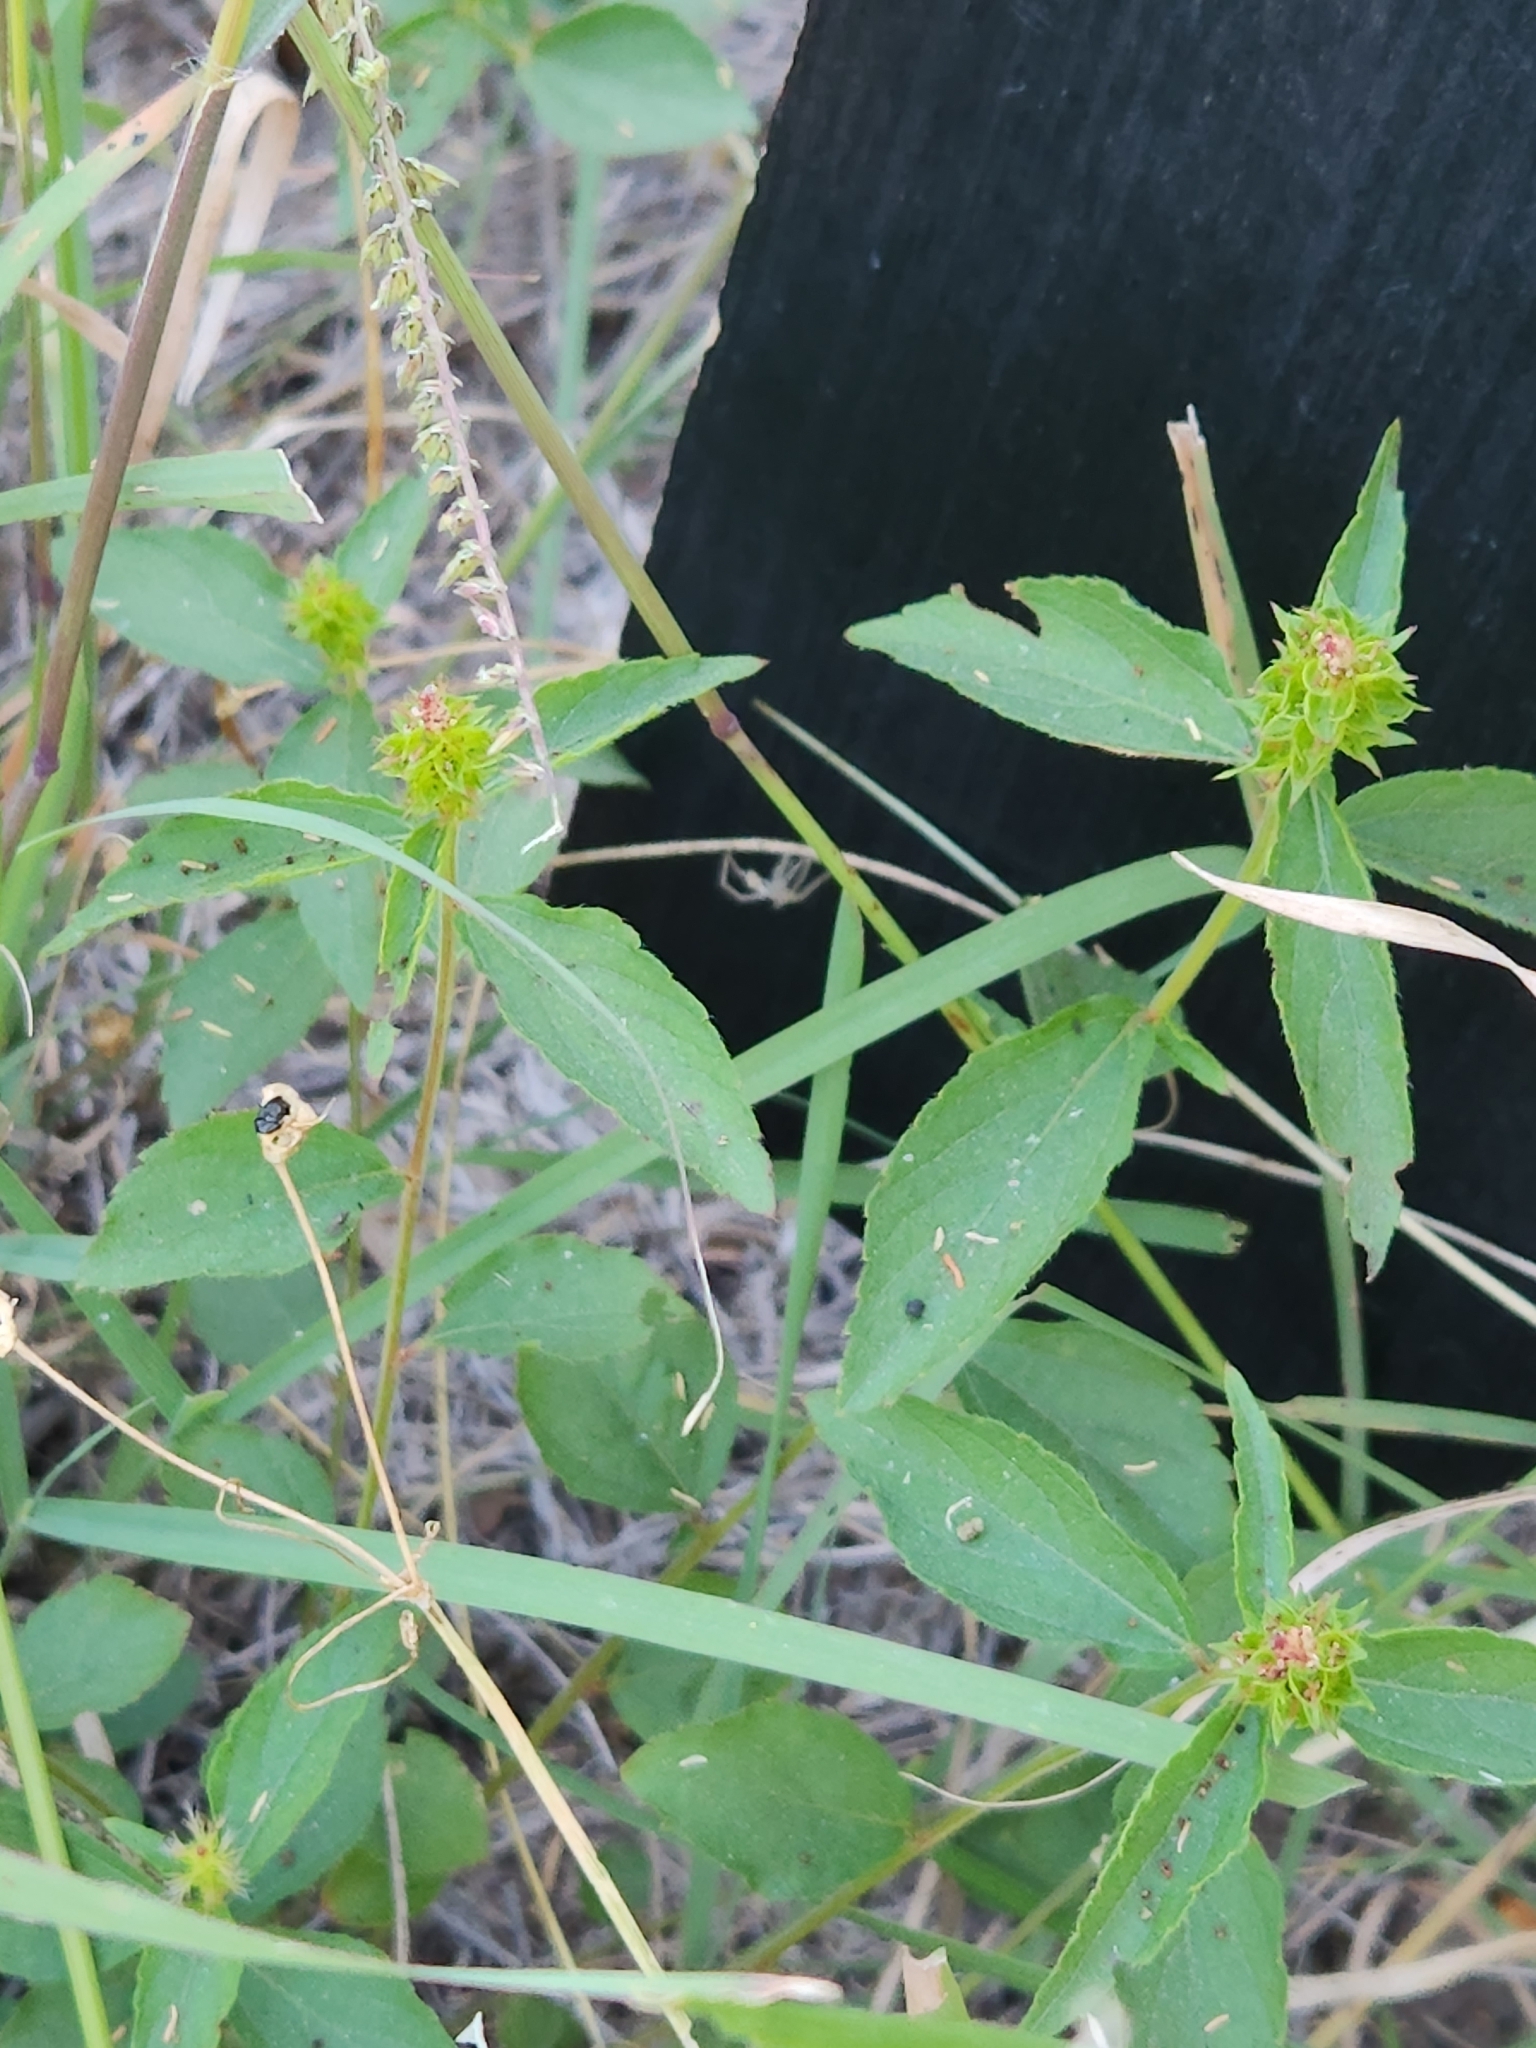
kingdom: Plantae
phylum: Tracheophyta
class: Magnoliopsida
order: Malpighiales
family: Euphorbiaceae
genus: Acalypha
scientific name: Acalypha phleoides
